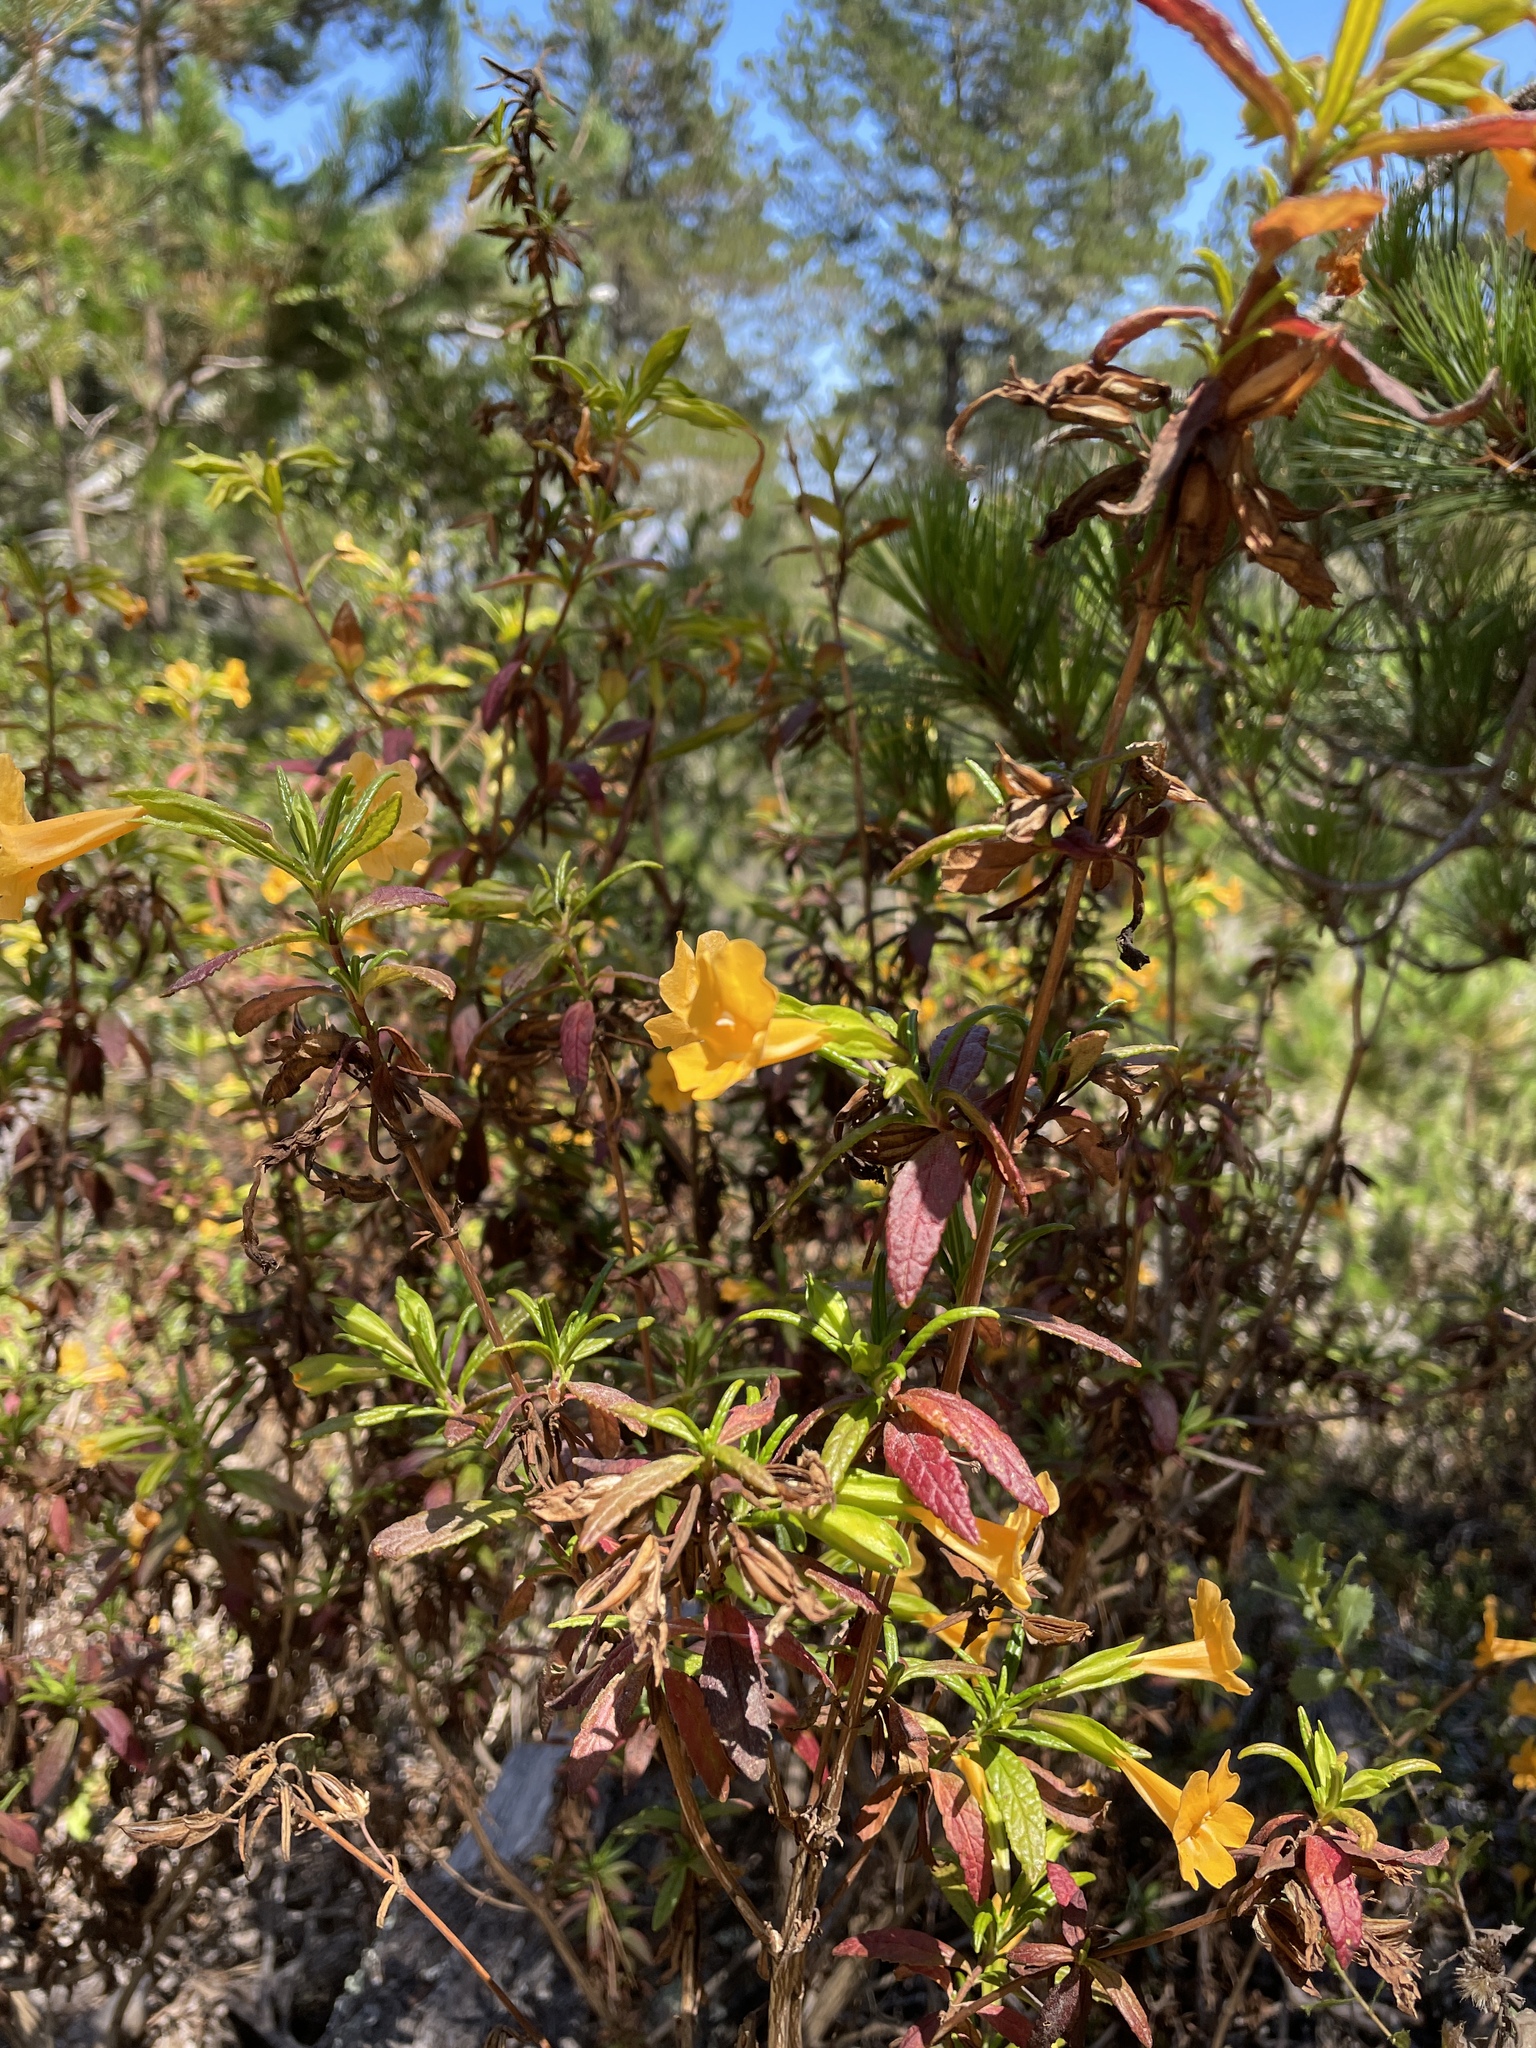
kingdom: Plantae
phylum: Tracheophyta
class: Magnoliopsida
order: Lamiales
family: Phrymaceae
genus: Diplacus
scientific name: Diplacus aurantiacus
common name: Bush monkey-flower
